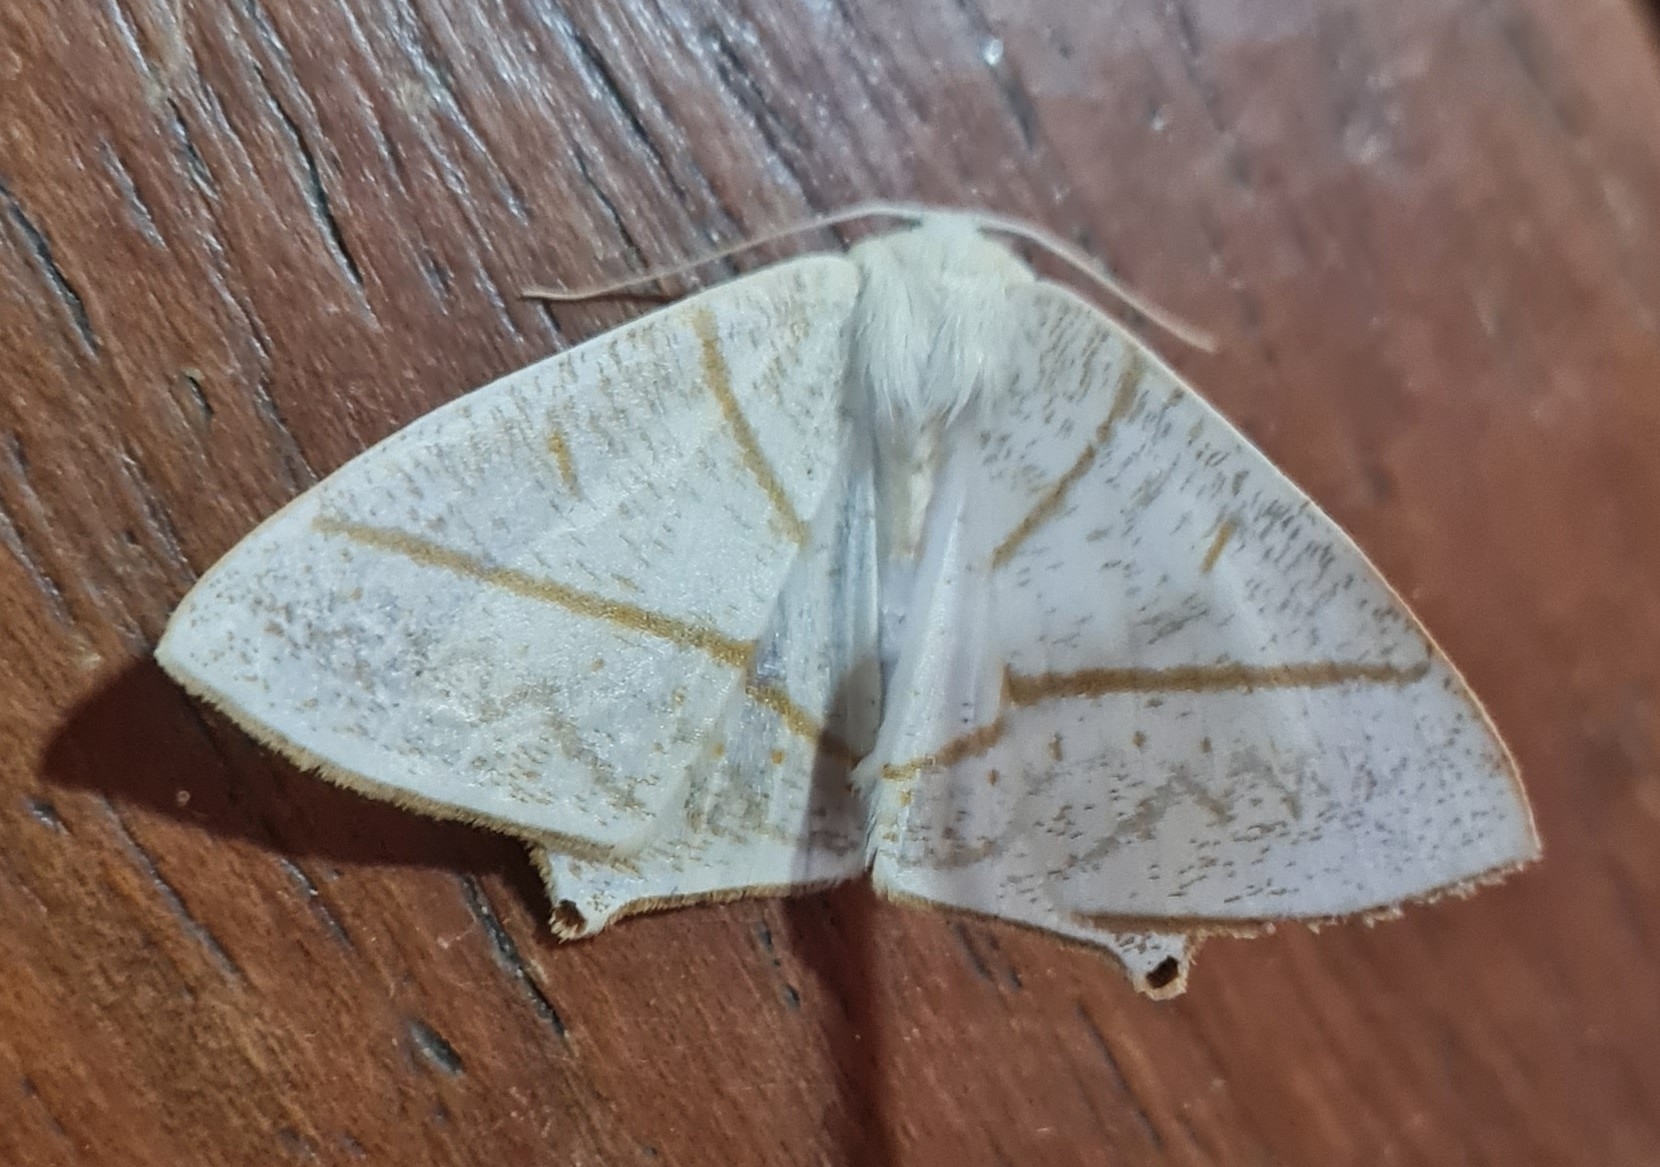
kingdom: Animalia
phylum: Arthropoda
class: Insecta
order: Lepidoptera
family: Geometridae
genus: Brachurapteryx
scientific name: Brachurapteryx breviaria
